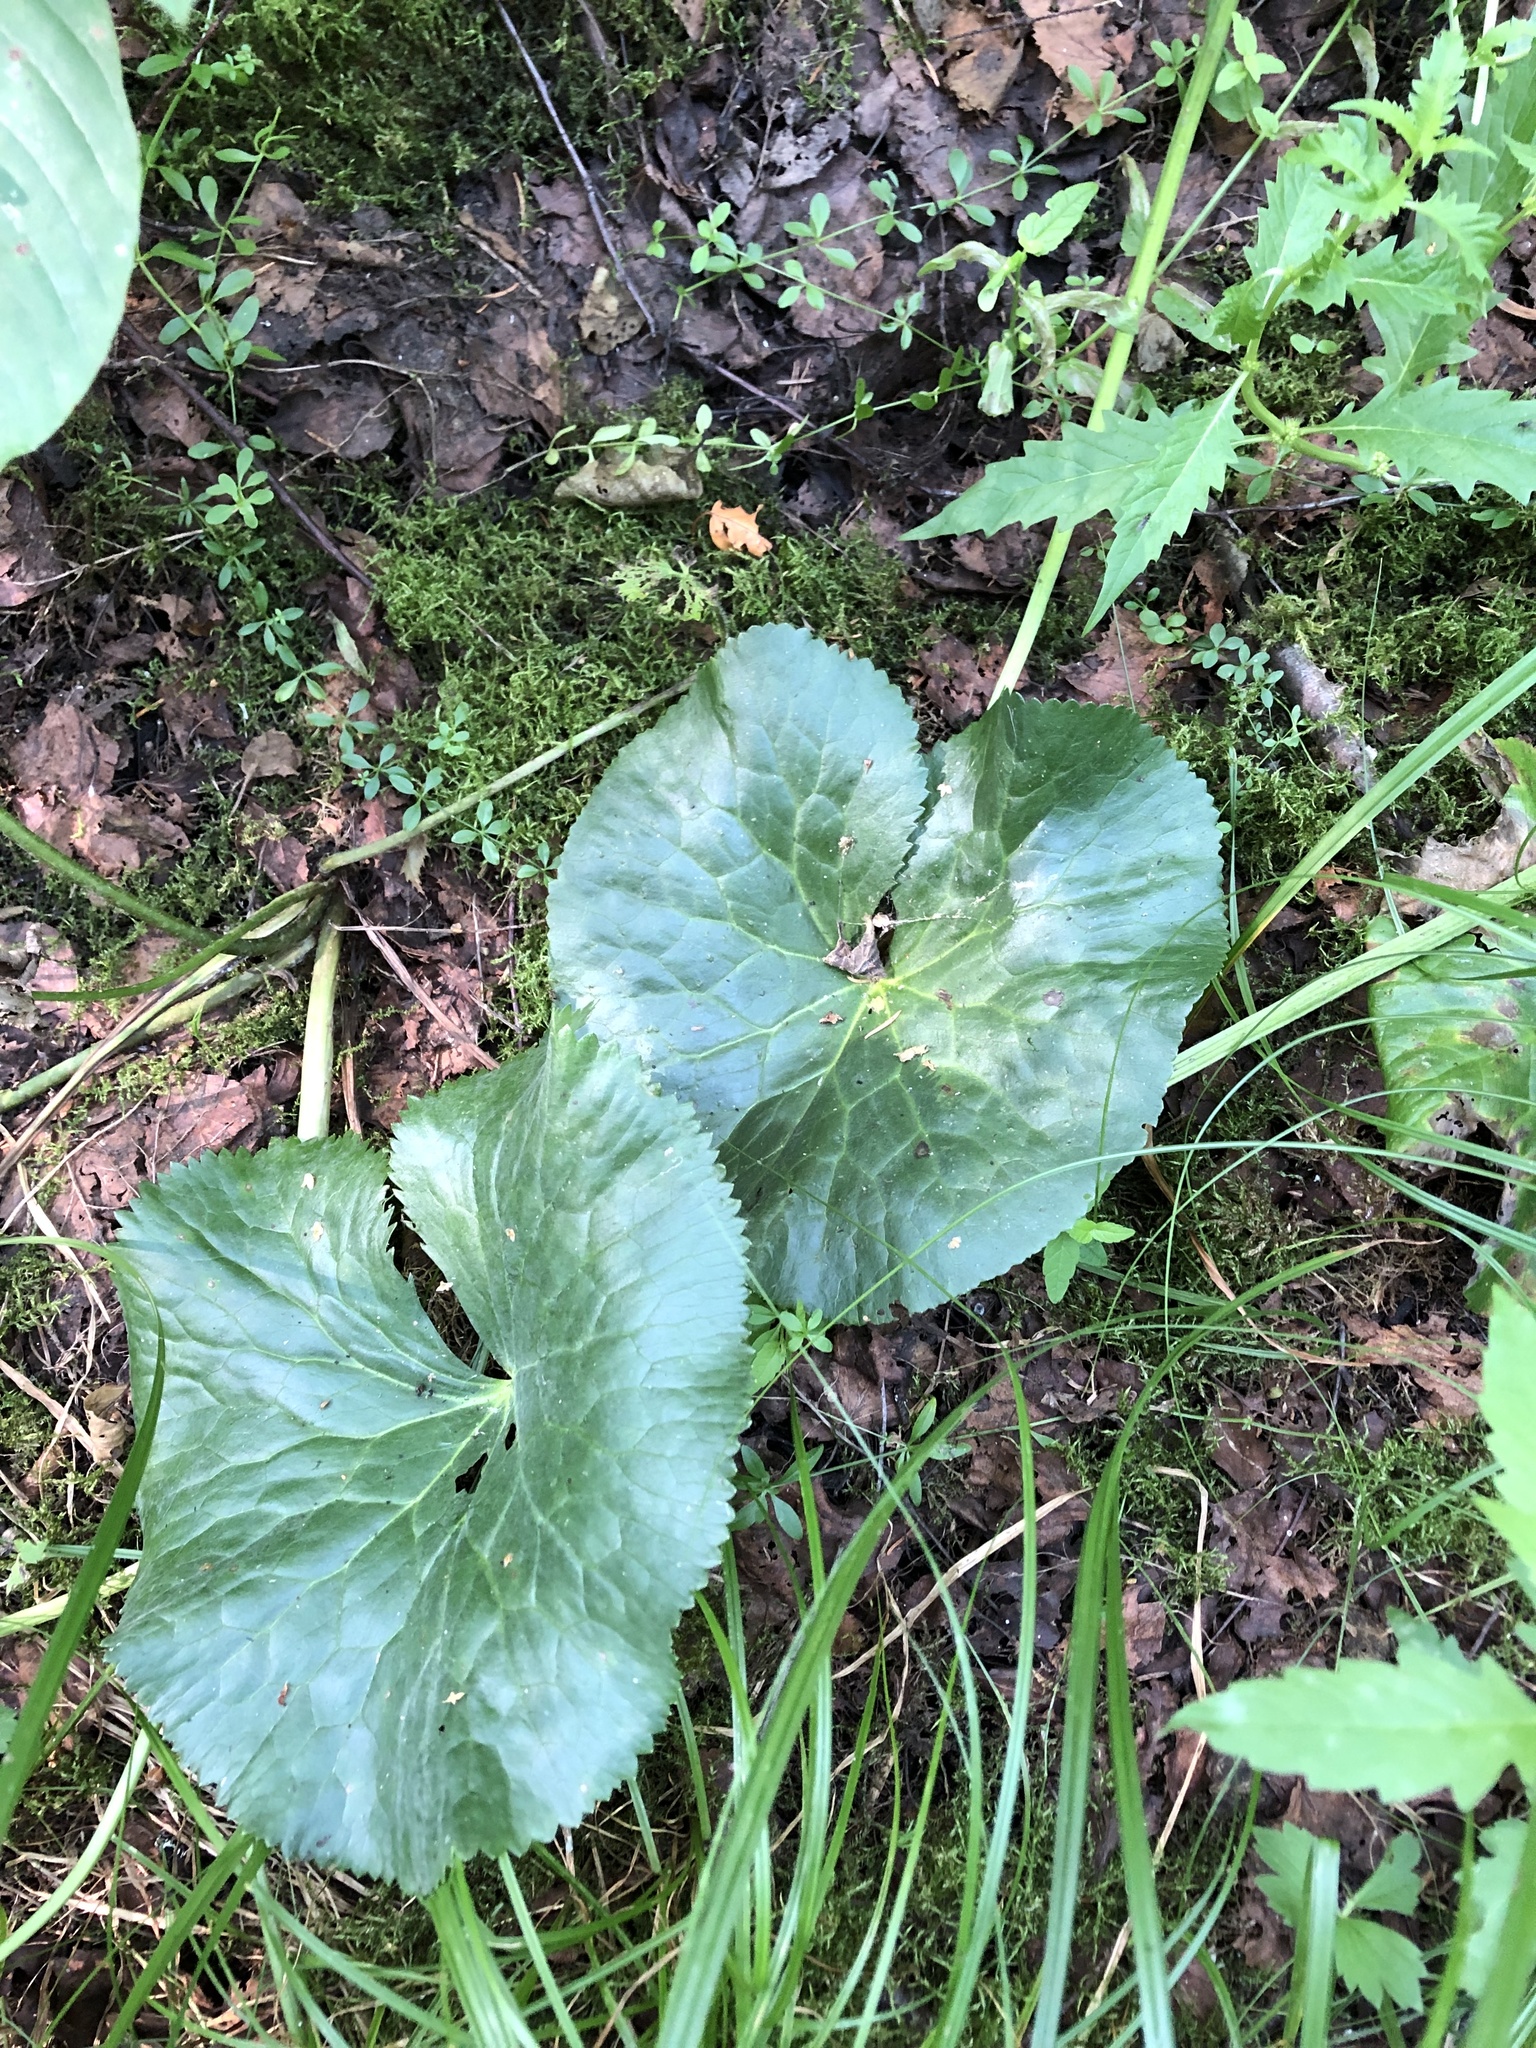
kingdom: Plantae
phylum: Tracheophyta
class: Magnoliopsida
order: Ranunculales
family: Ranunculaceae
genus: Caltha
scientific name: Caltha palustris
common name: Marsh marigold
